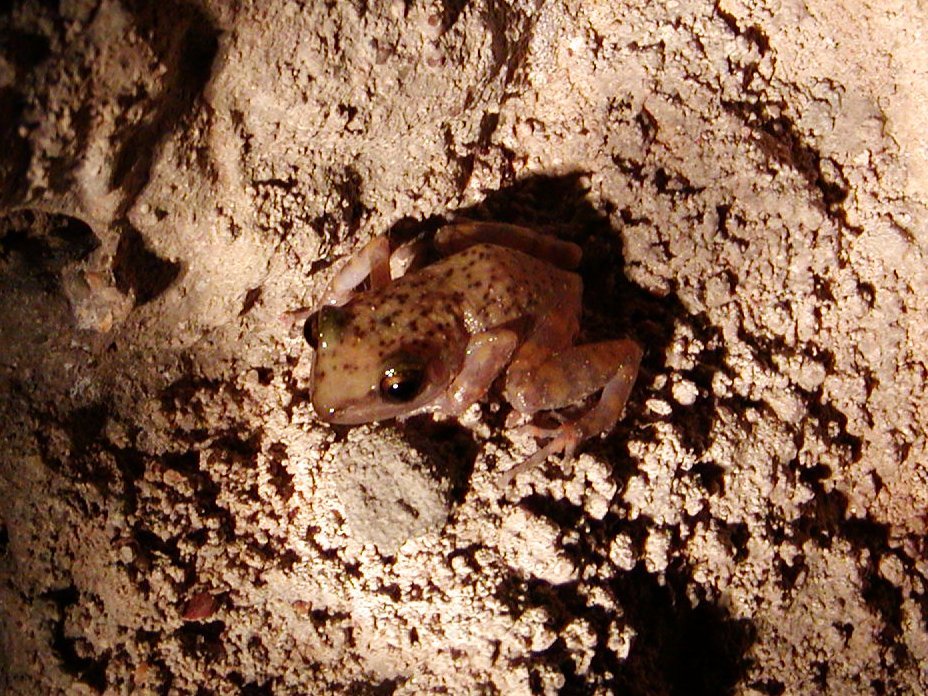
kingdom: Animalia
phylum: Chordata
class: Amphibia
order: Anura
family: Eleutherodactylidae
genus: Eleutherodactylus
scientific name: Eleutherodactylus marnockii
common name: Cliff chirping frog
